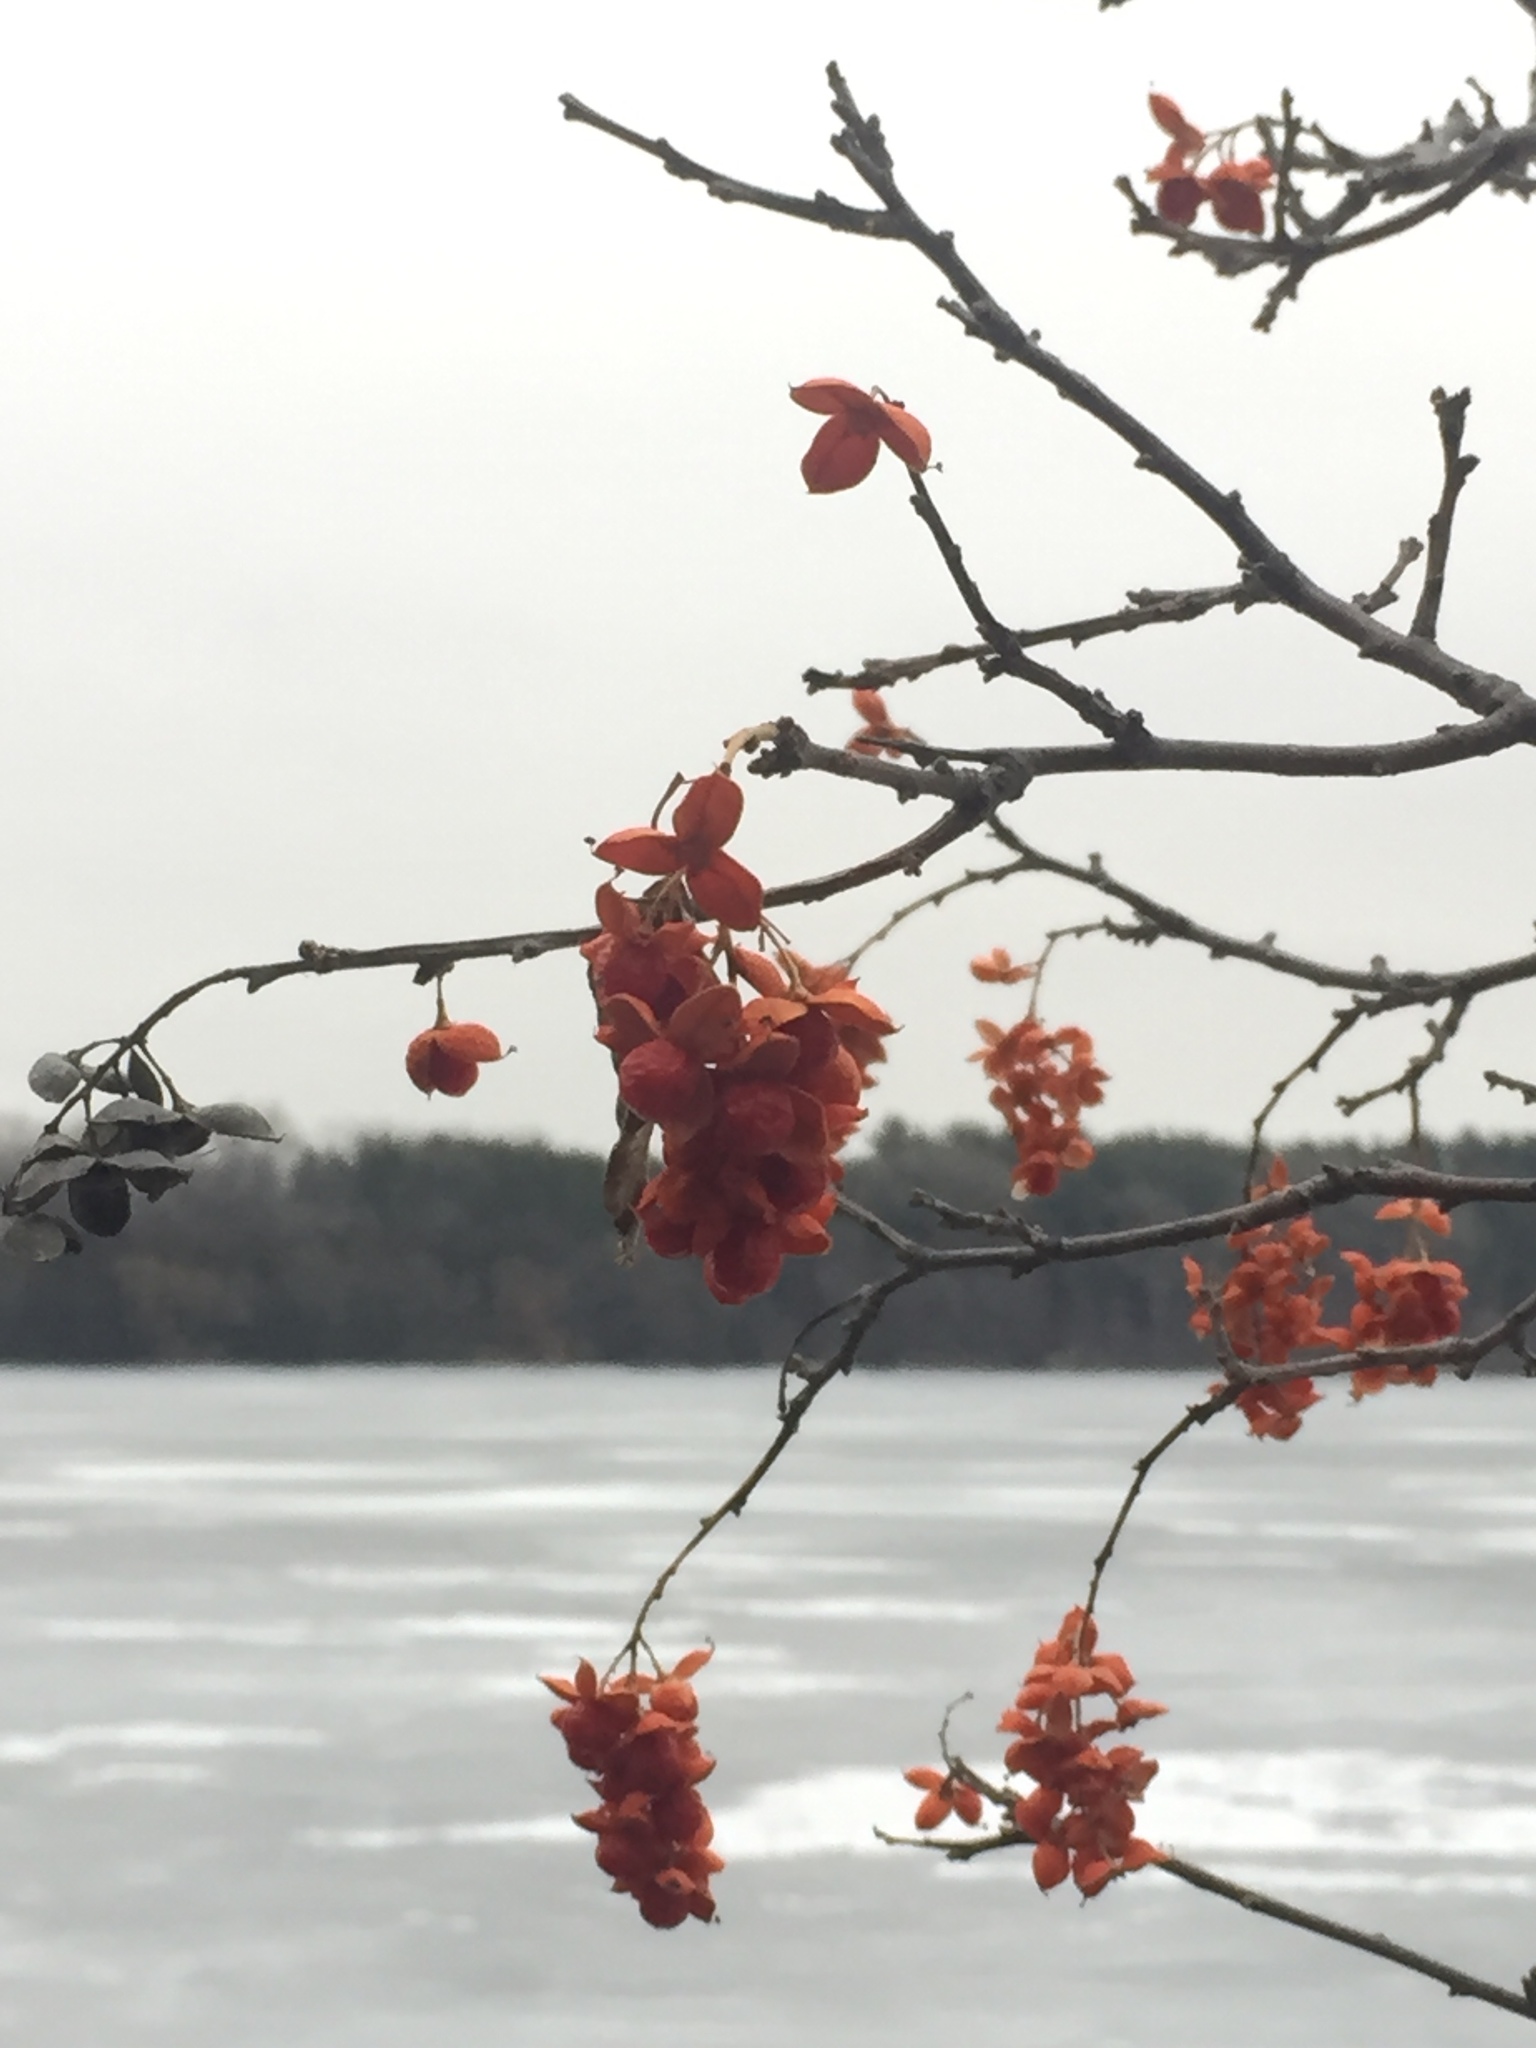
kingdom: Plantae
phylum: Tracheophyta
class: Magnoliopsida
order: Celastrales
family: Celastraceae
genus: Celastrus
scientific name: Celastrus scandens
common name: American bittersweet
